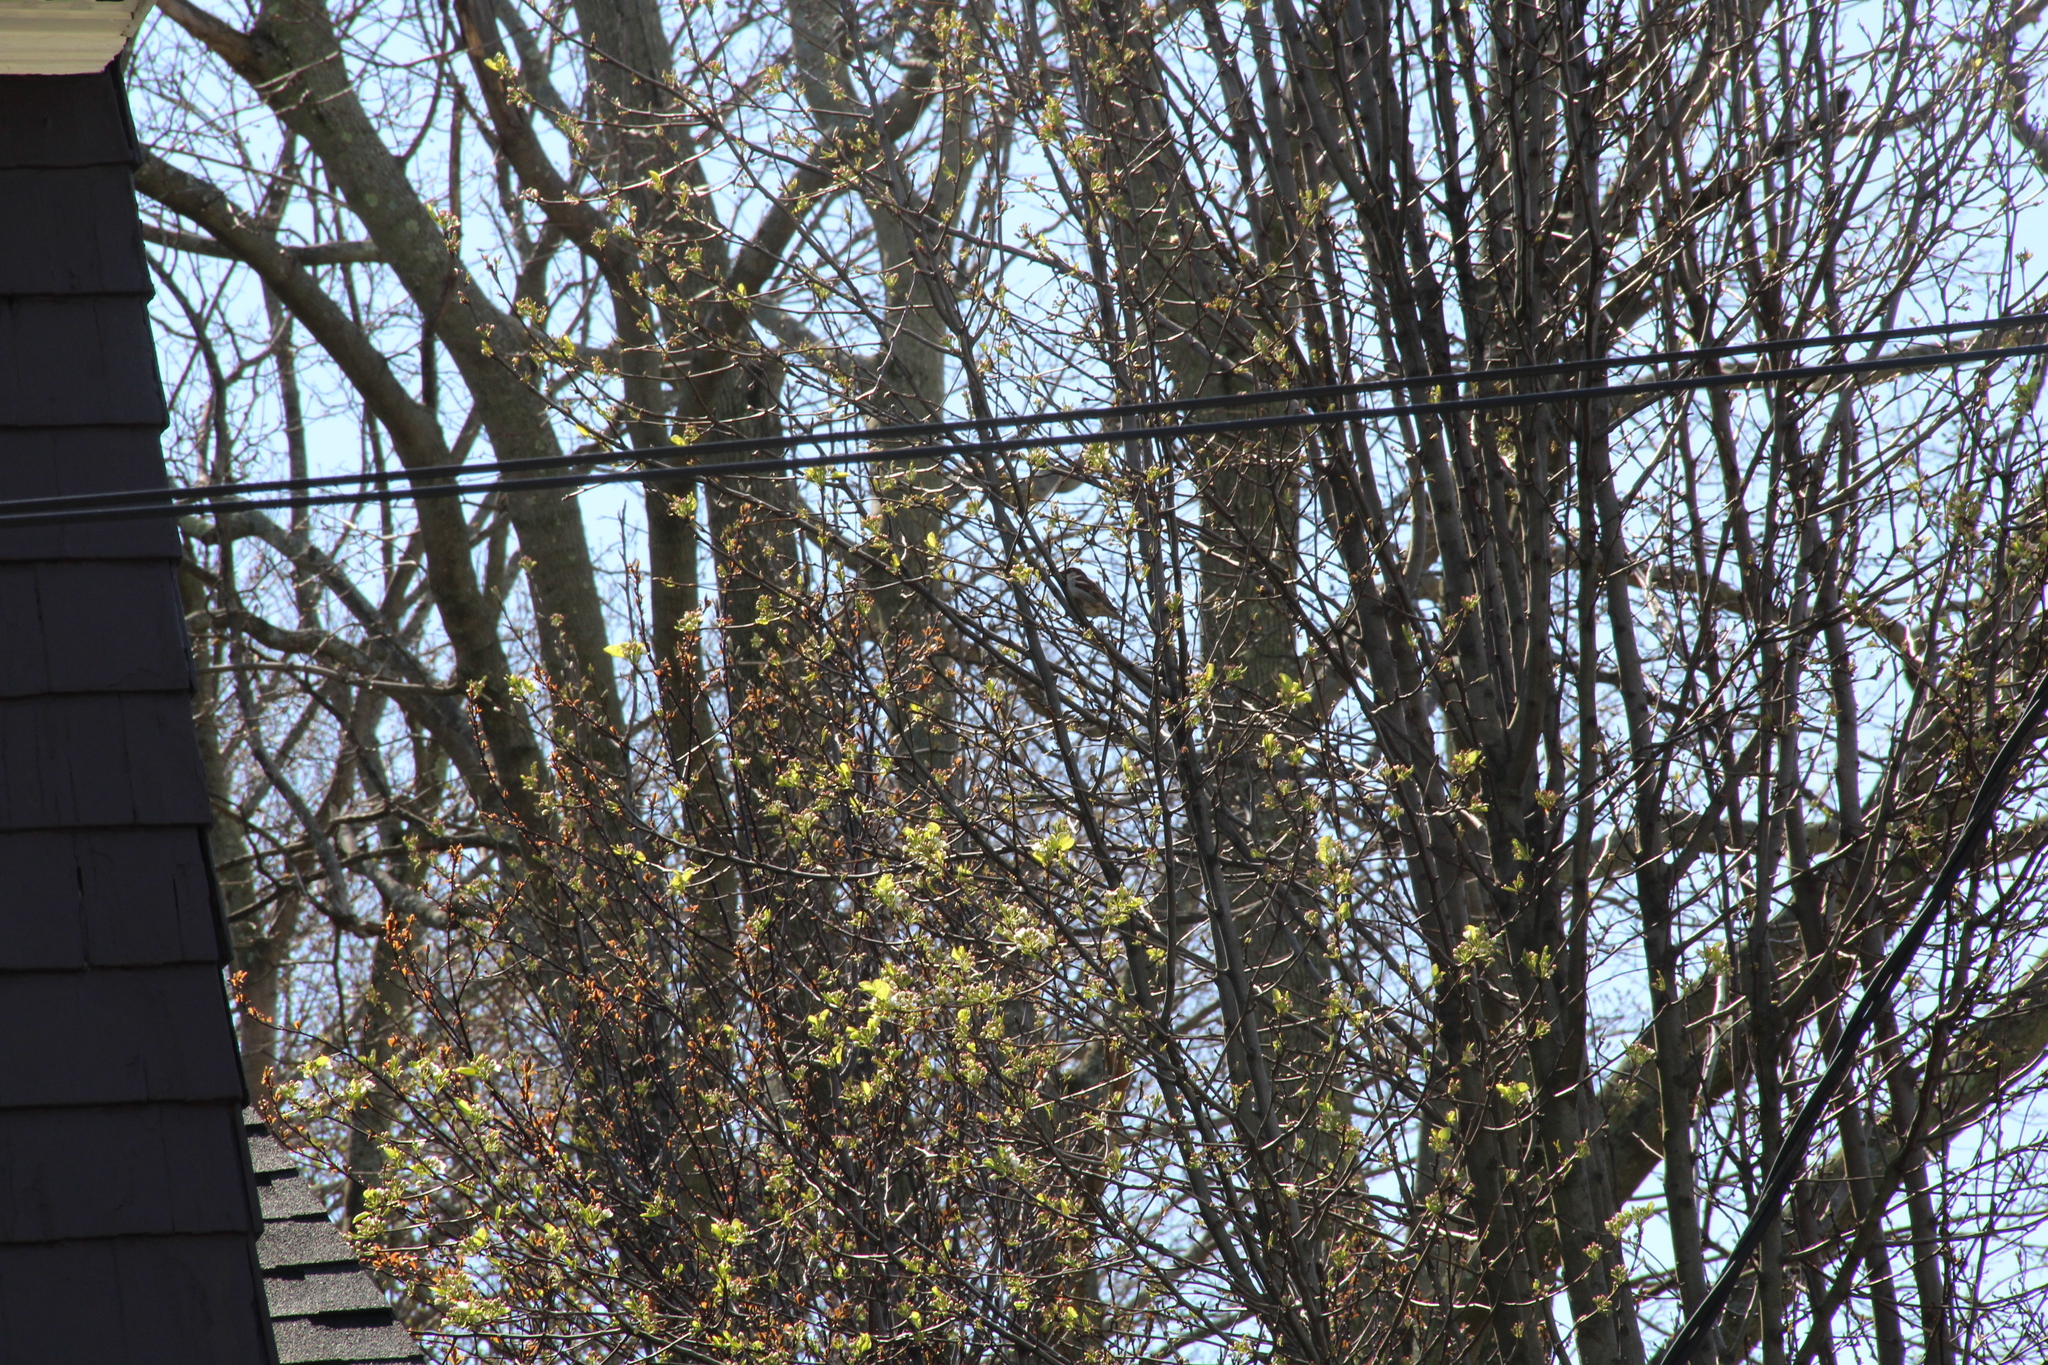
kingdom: Animalia
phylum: Chordata
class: Aves
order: Passeriformes
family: Passeridae
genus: Passer
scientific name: Passer domesticus
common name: House sparrow
